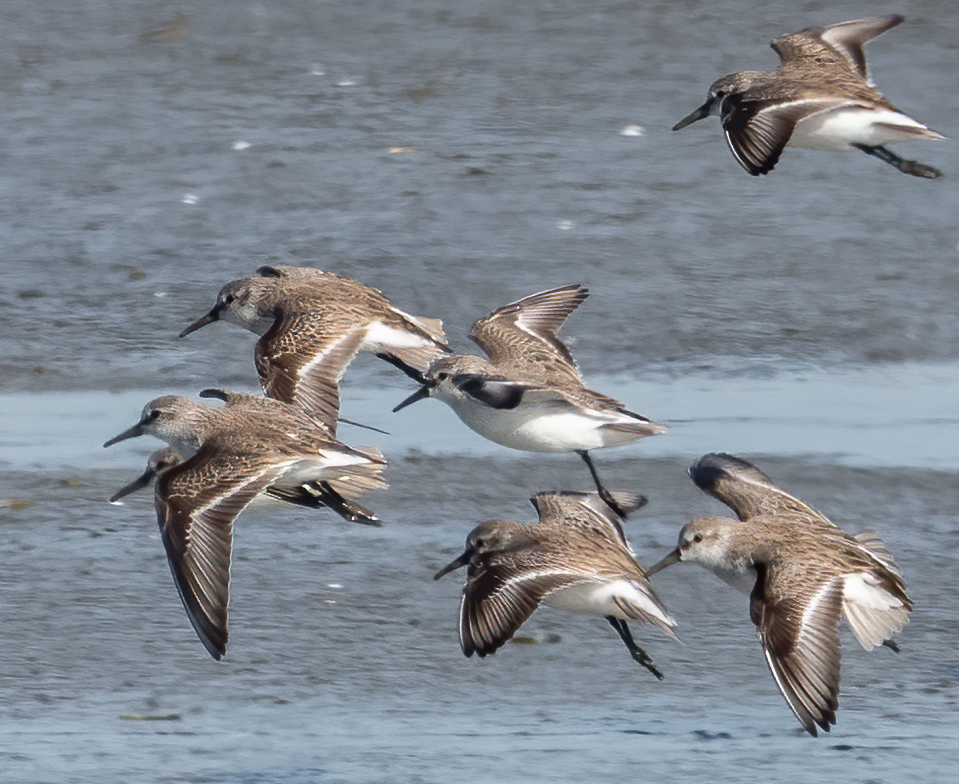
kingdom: Animalia
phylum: Chordata
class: Aves
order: Charadriiformes
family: Scolopacidae
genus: Calidris
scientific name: Calidris mauri
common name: Western sandpiper
